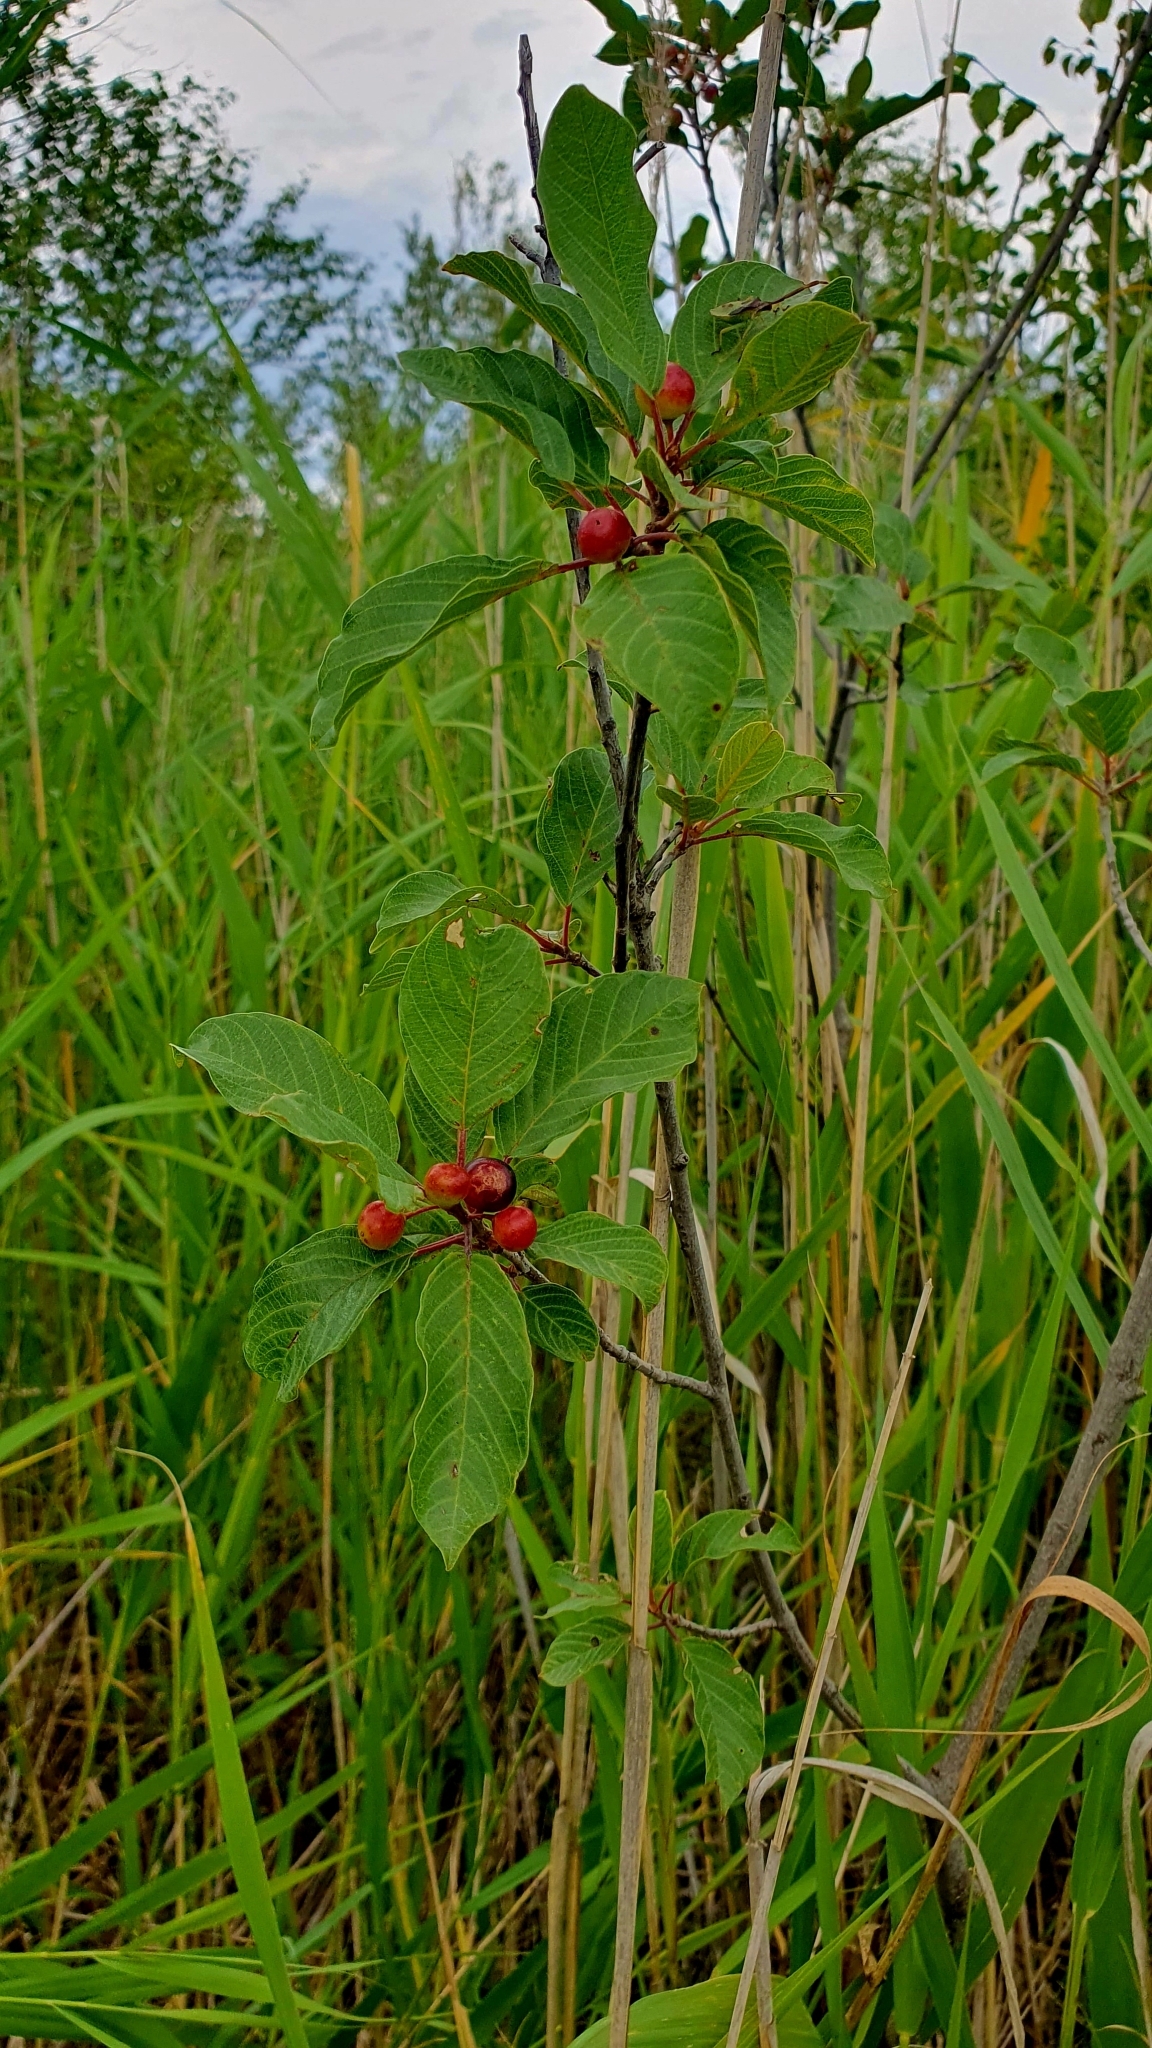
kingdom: Plantae
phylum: Tracheophyta
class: Magnoliopsida
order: Rosales
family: Rhamnaceae
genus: Frangula
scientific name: Frangula alnus
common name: Alder buckthorn
